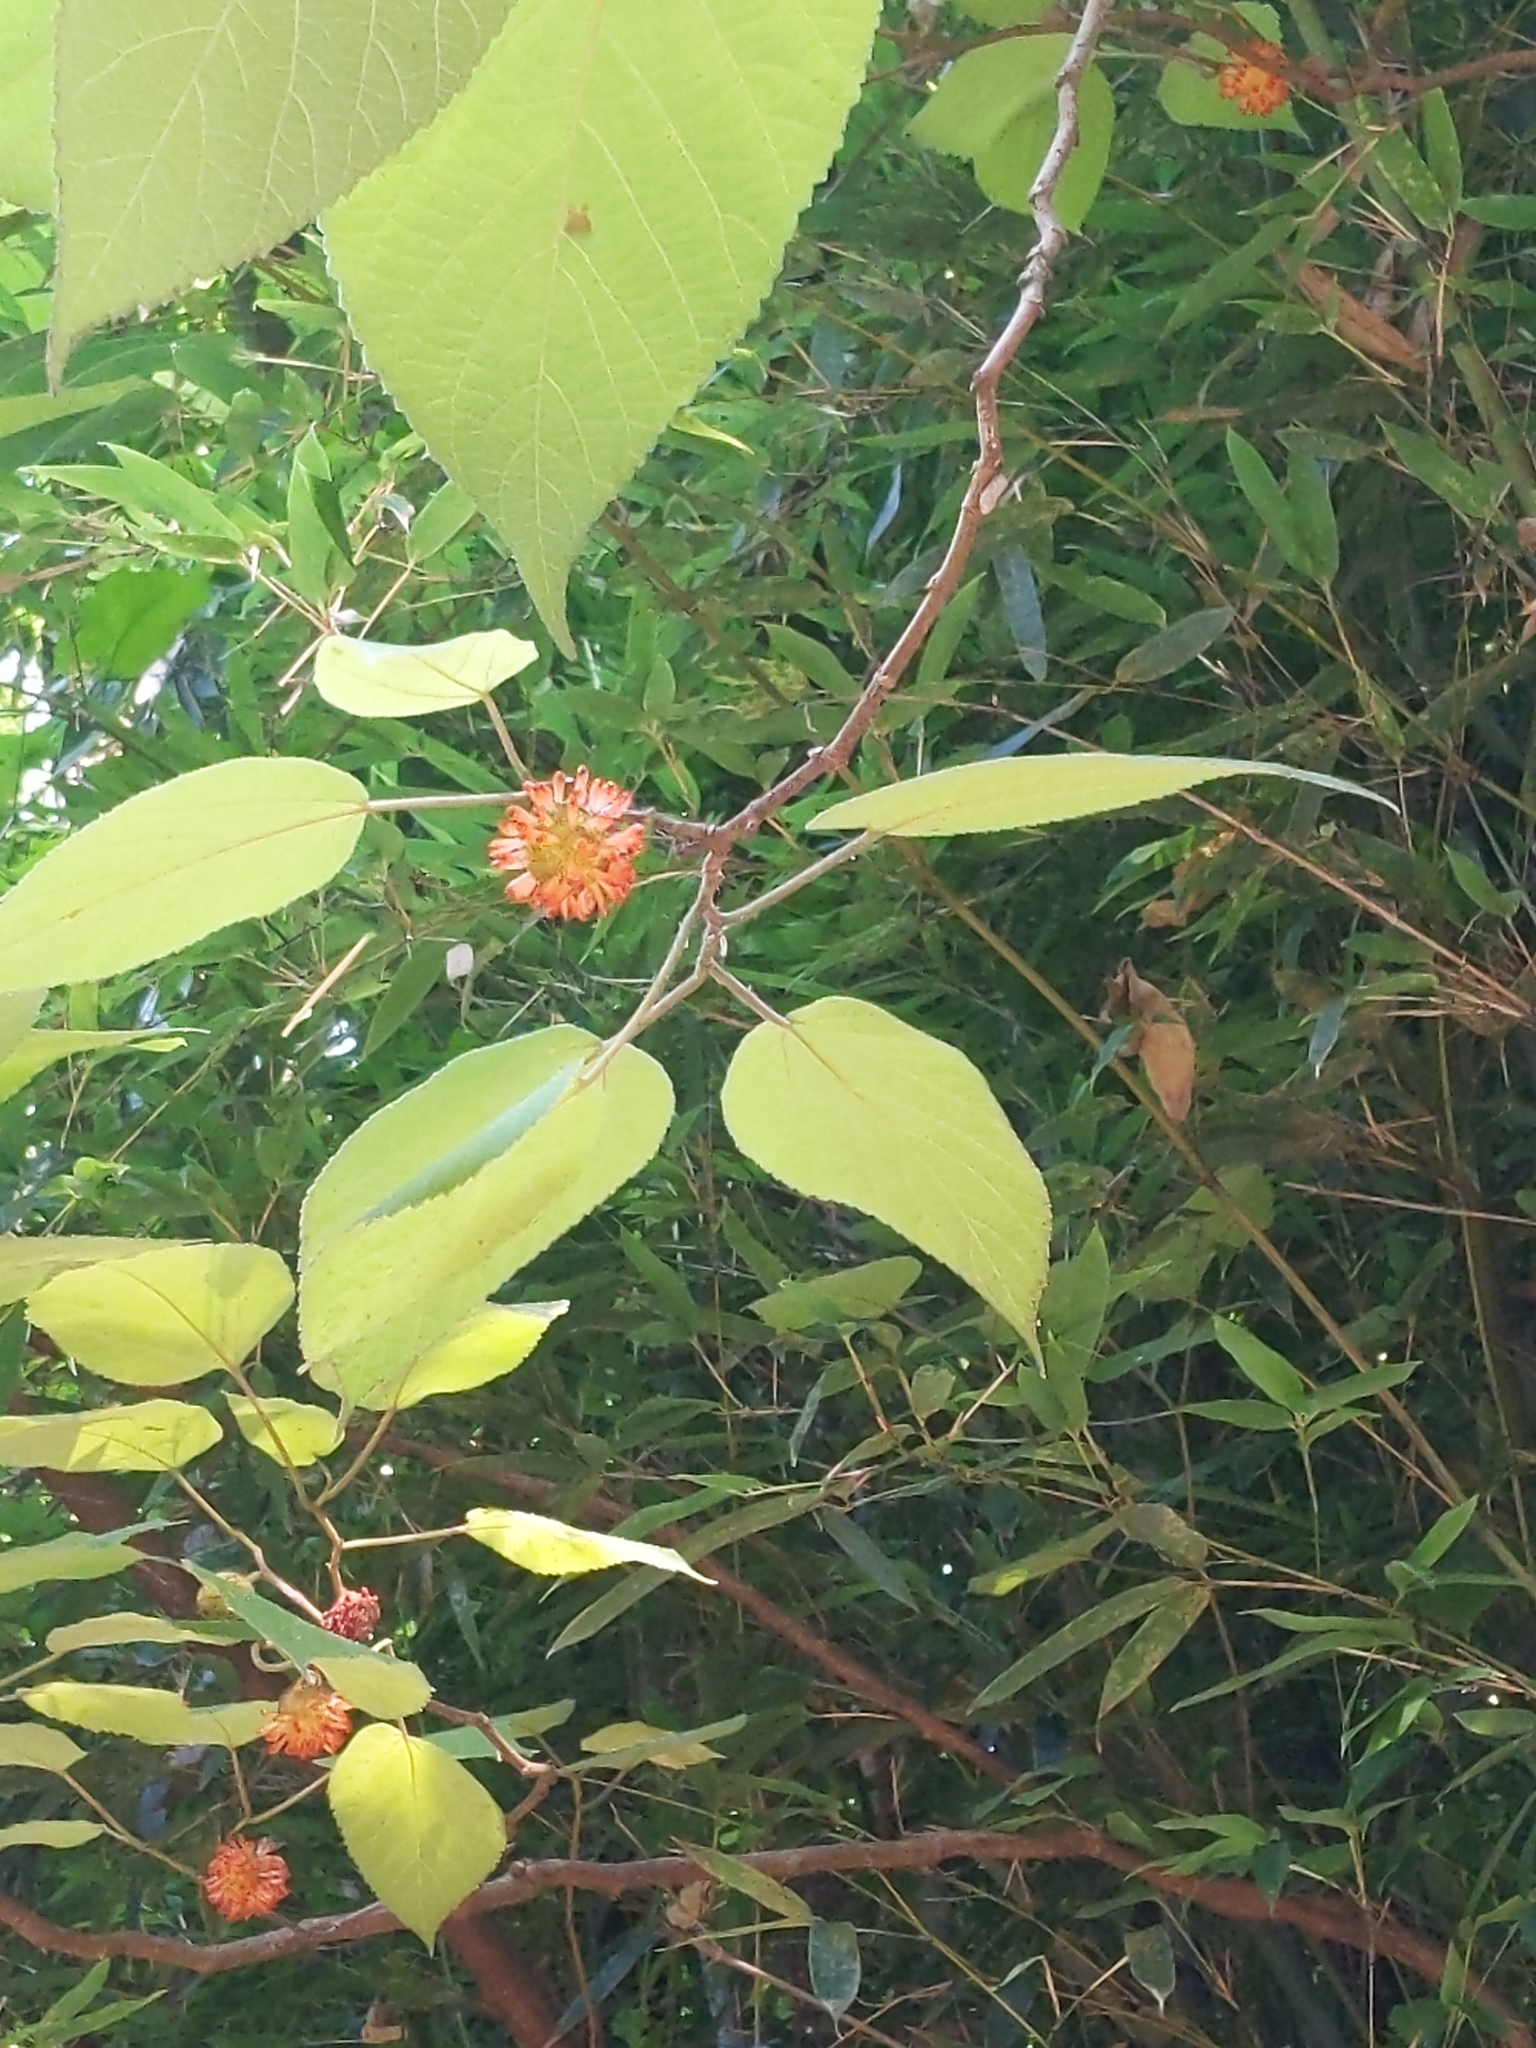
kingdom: Plantae
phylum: Tracheophyta
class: Magnoliopsida
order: Rosales
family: Moraceae
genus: Broussonetia
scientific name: Broussonetia papyrifera
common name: Paper mulberry
